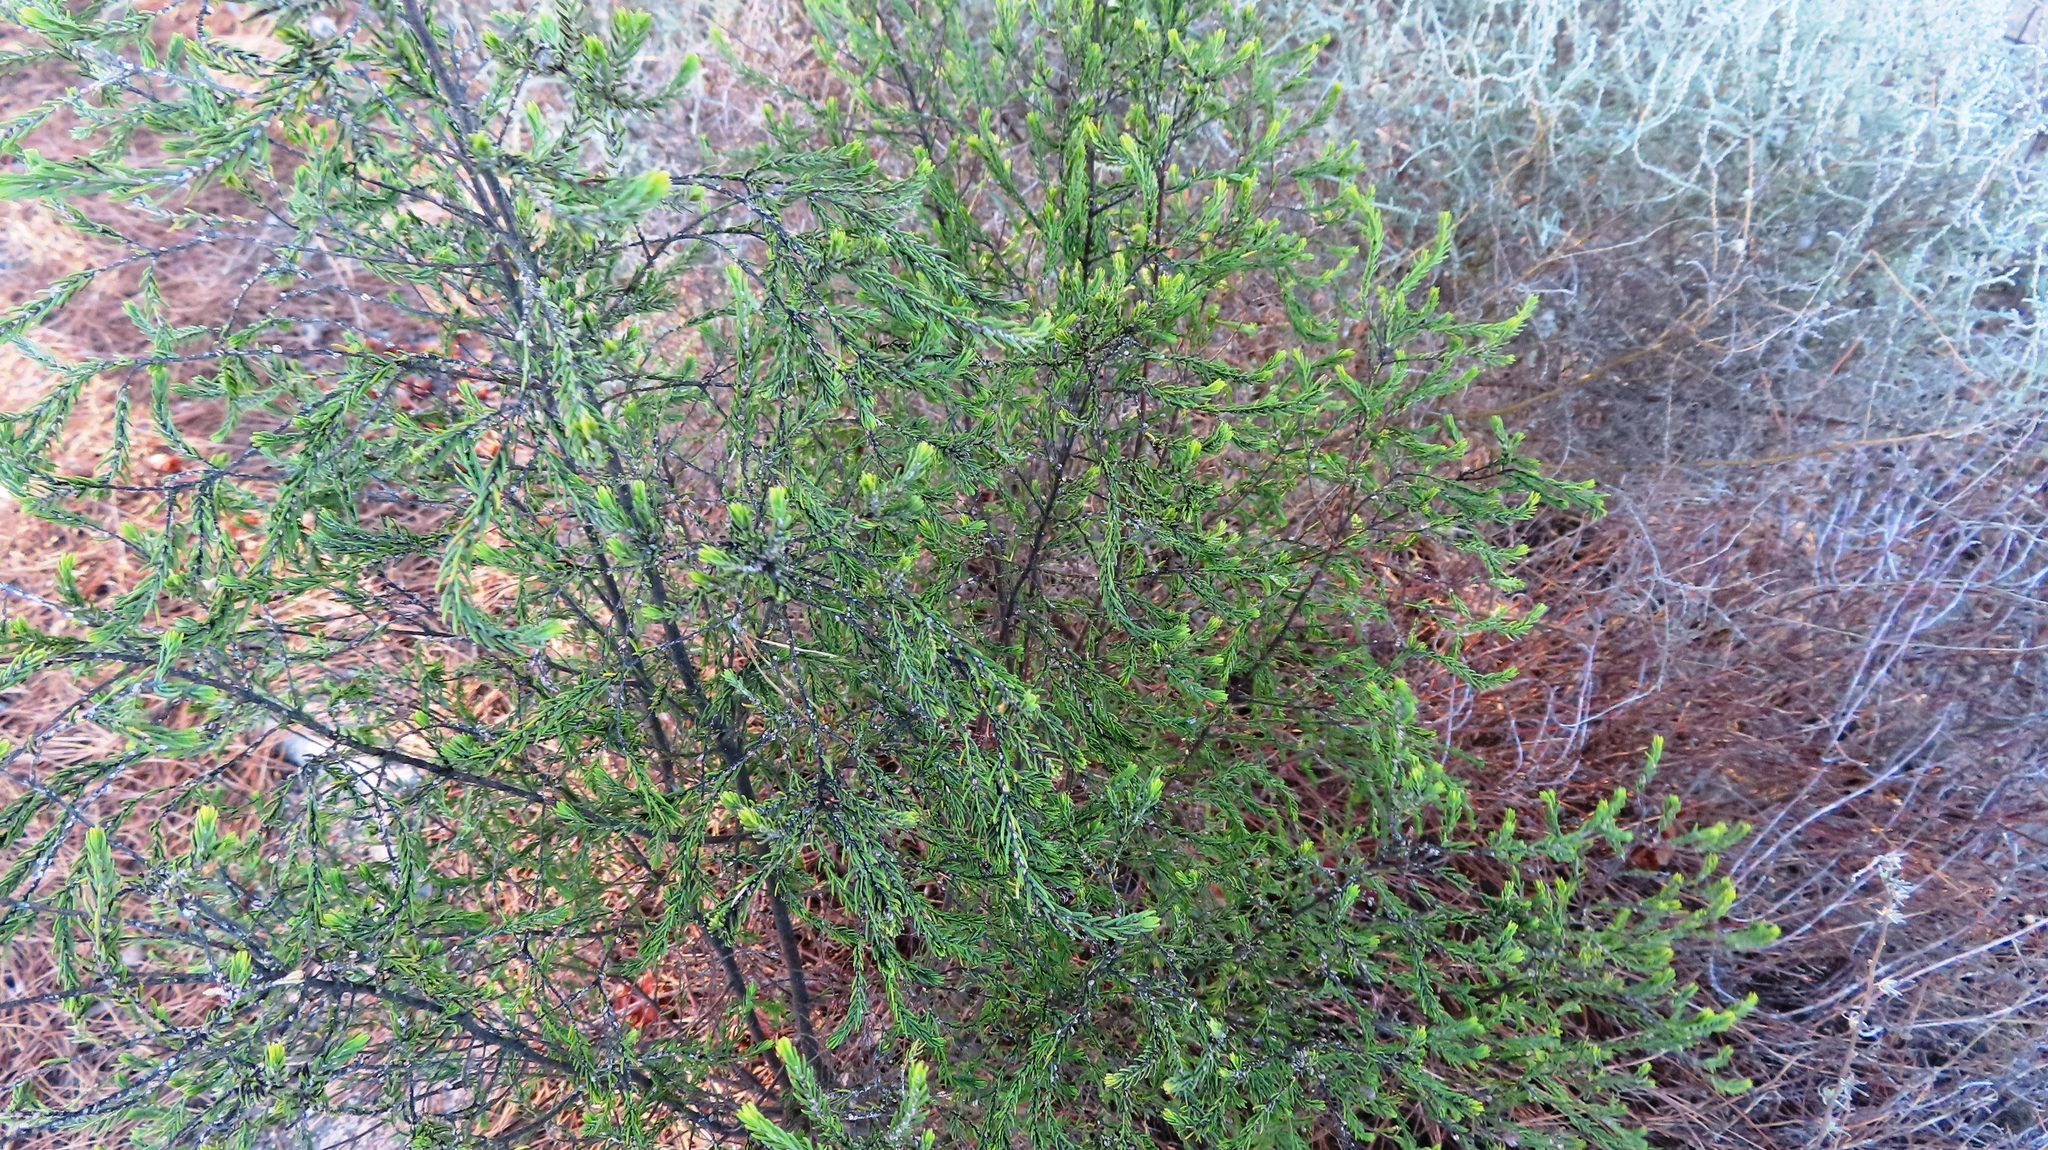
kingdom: Plantae
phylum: Tracheophyta
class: Magnoliopsida
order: Malvales
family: Thymelaeaceae
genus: Passerina
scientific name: Passerina corymbosa
